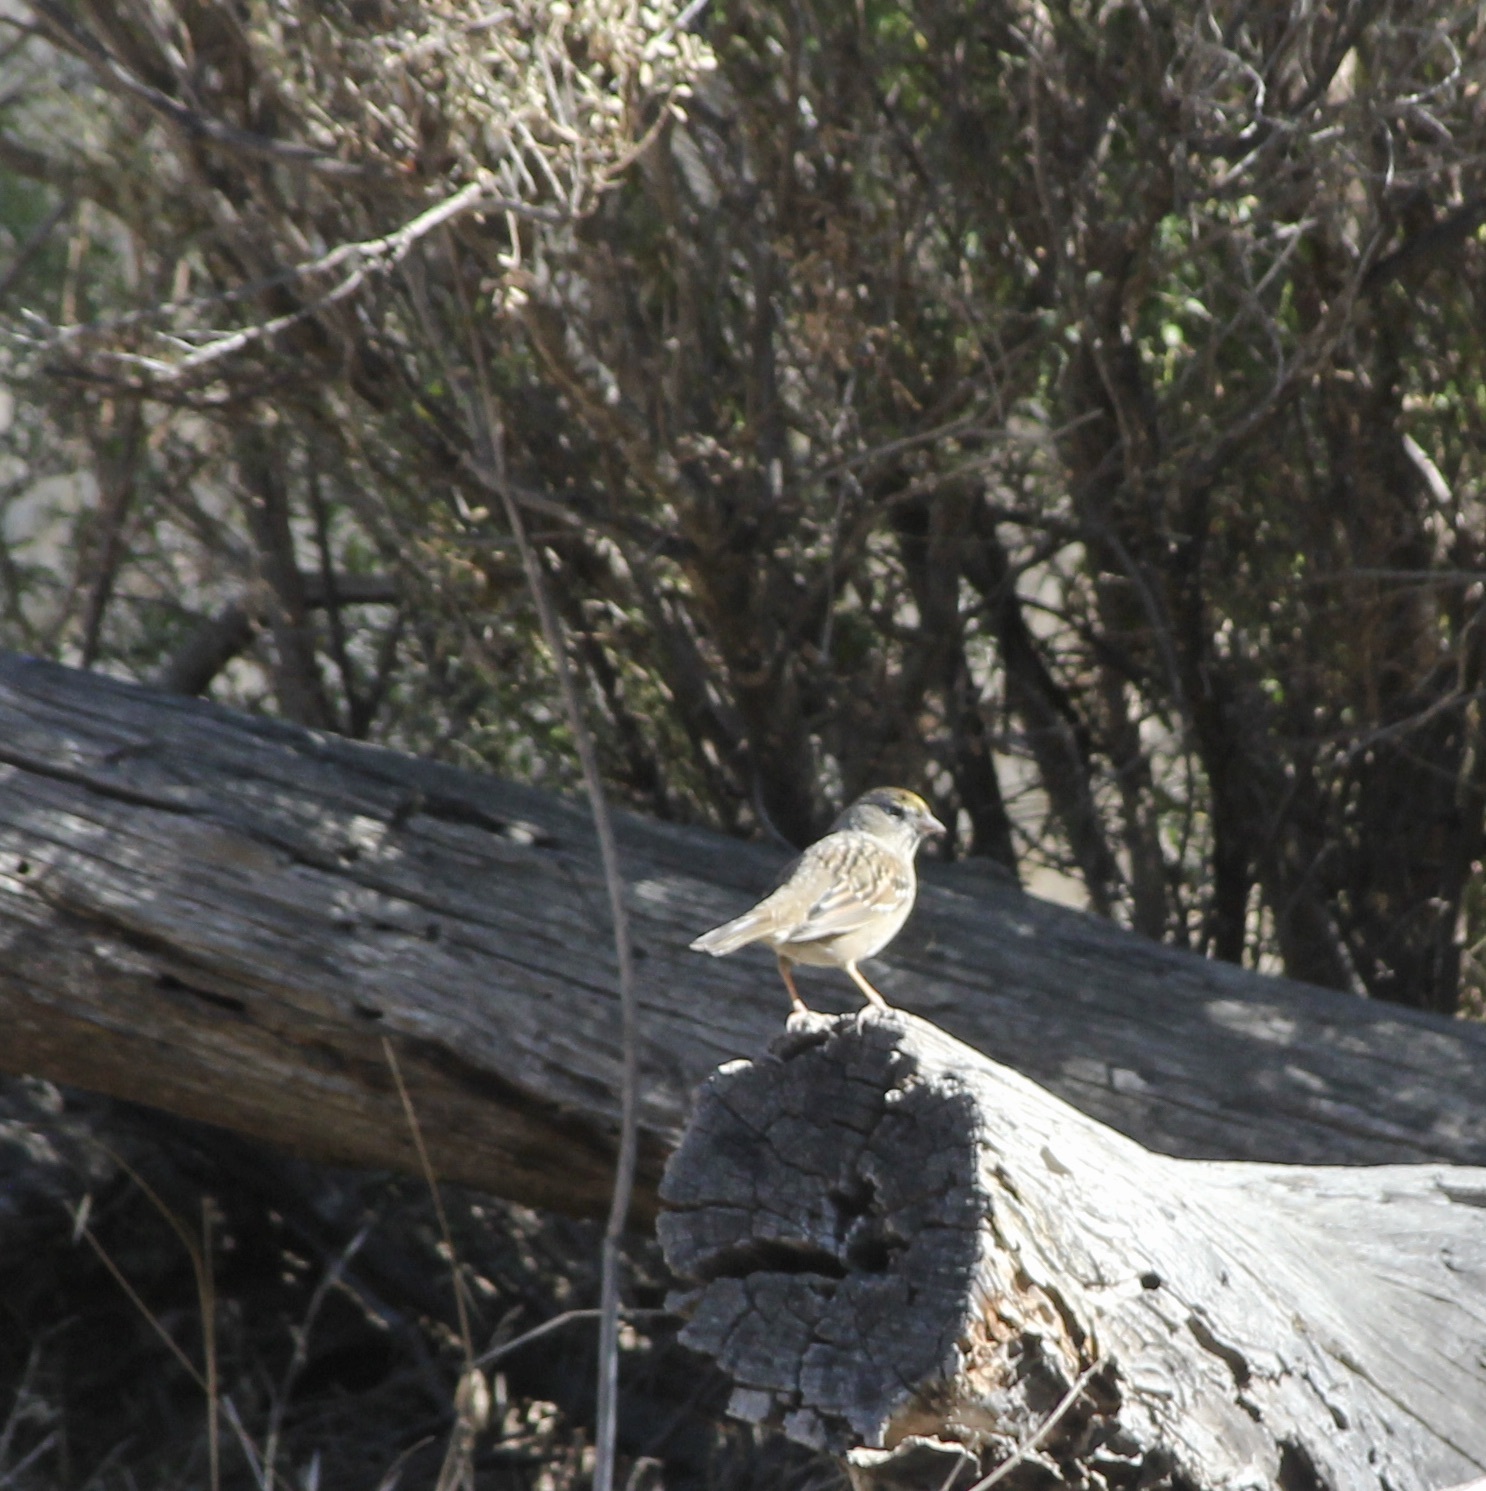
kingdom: Animalia
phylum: Chordata
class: Aves
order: Passeriformes
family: Passerellidae
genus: Zonotrichia
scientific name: Zonotrichia atricapilla
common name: Golden-crowned sparrow
